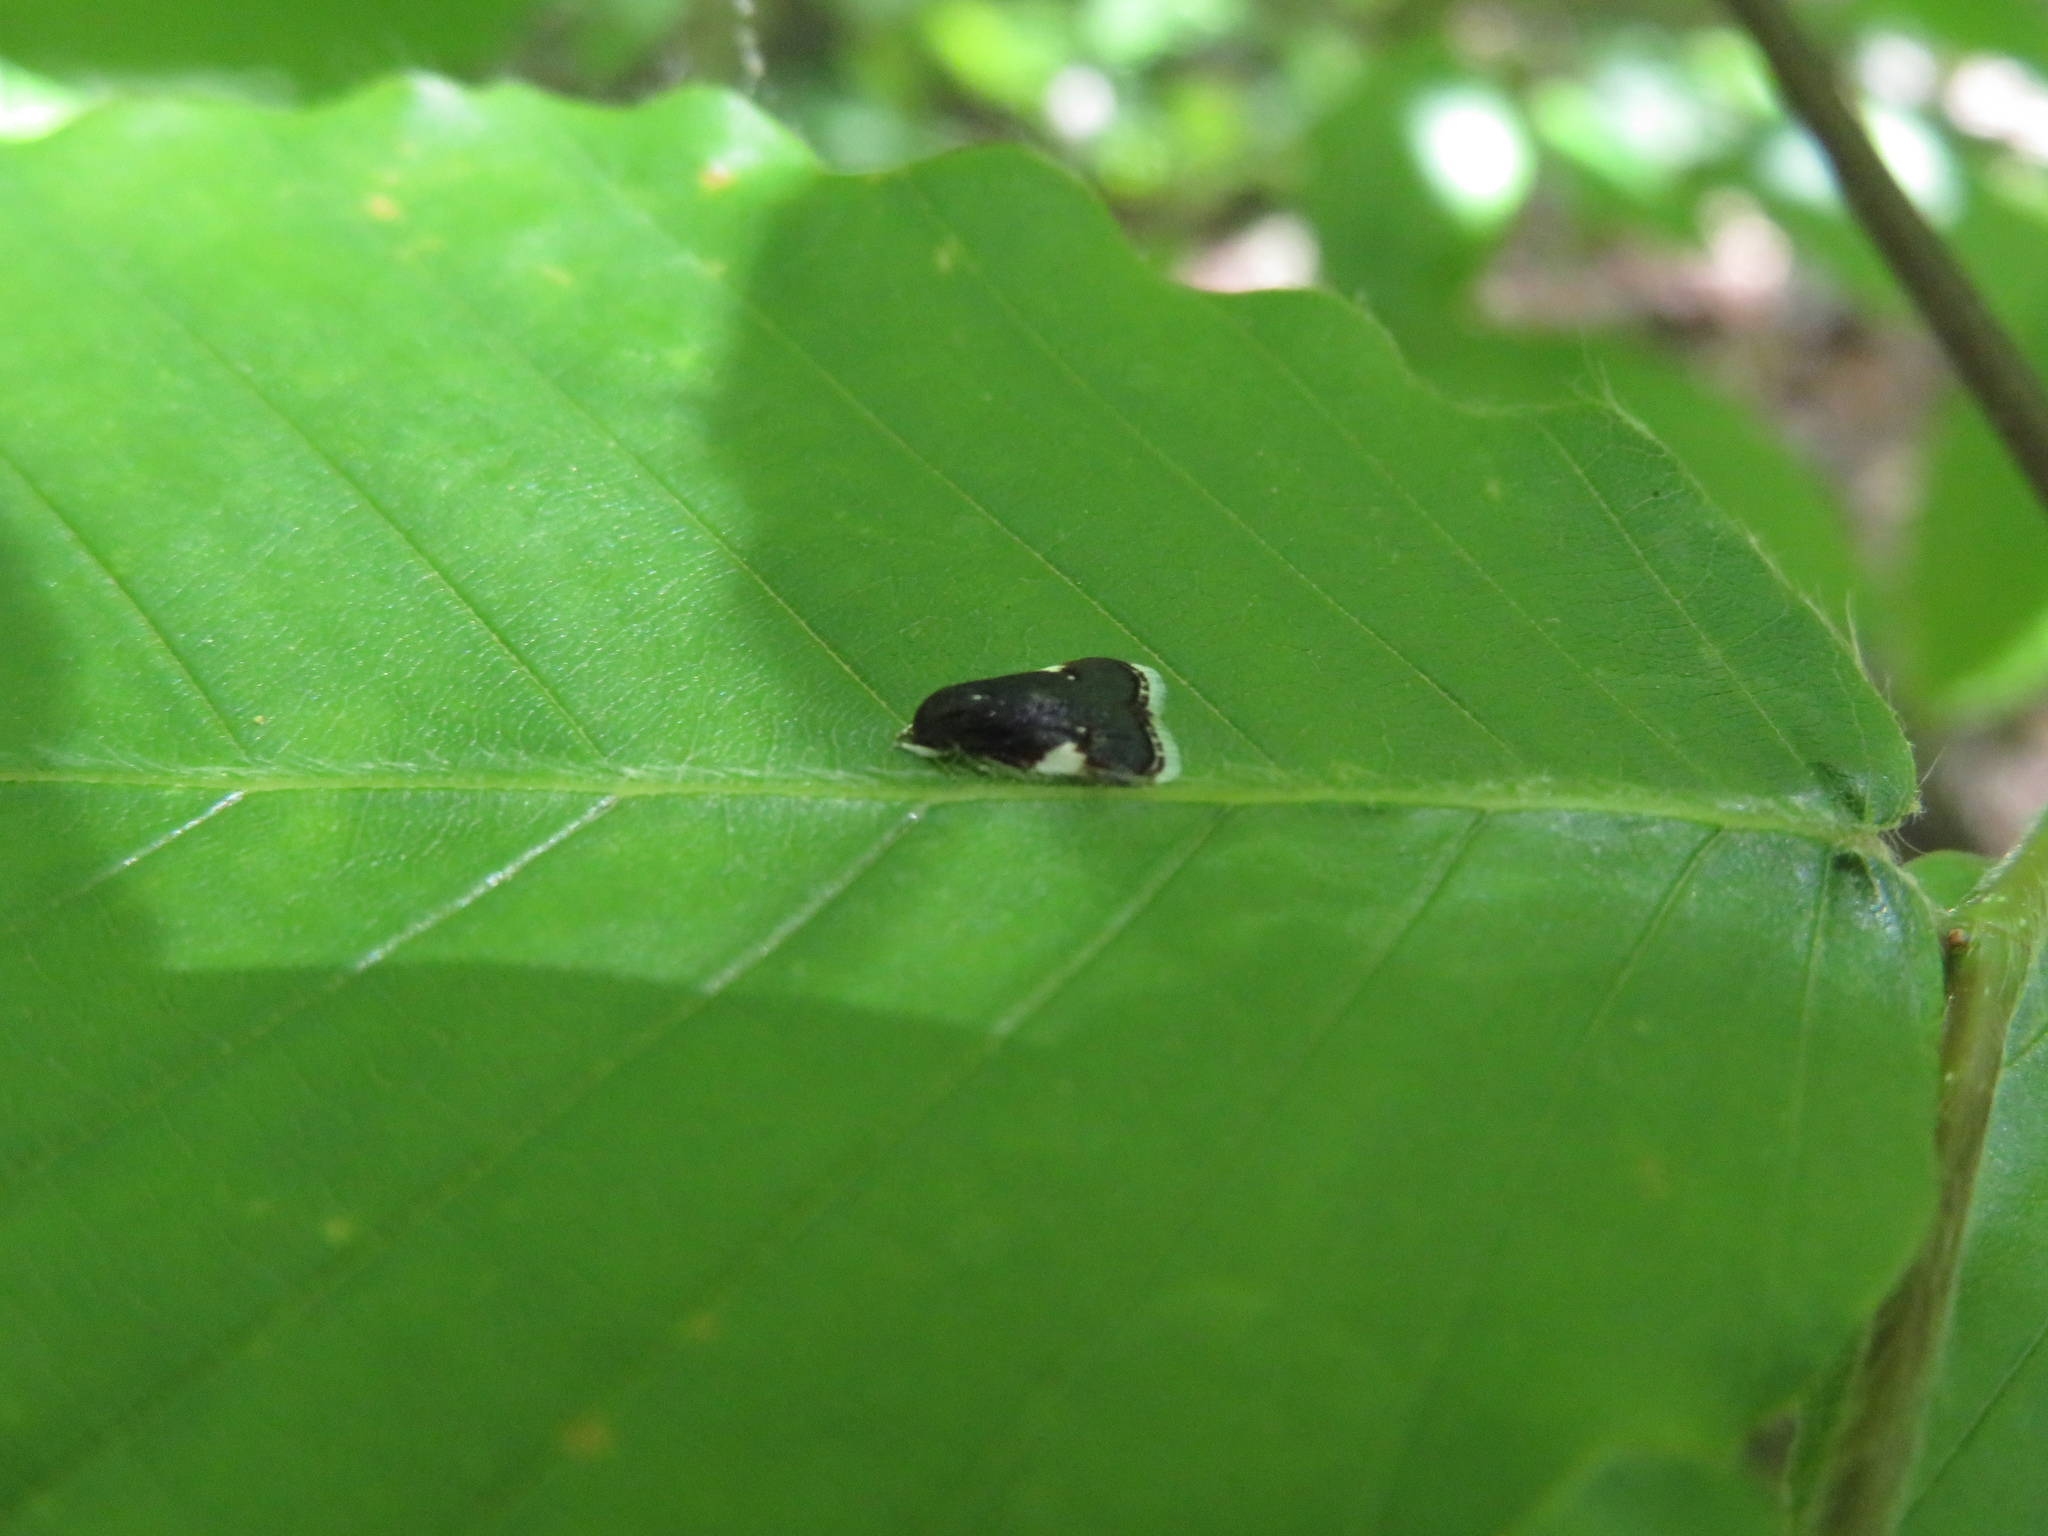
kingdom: Animalia
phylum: Arthropoda
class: Insecta
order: Lepidoptera
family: Depressariidae
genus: Menesta
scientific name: Menesta melanella
